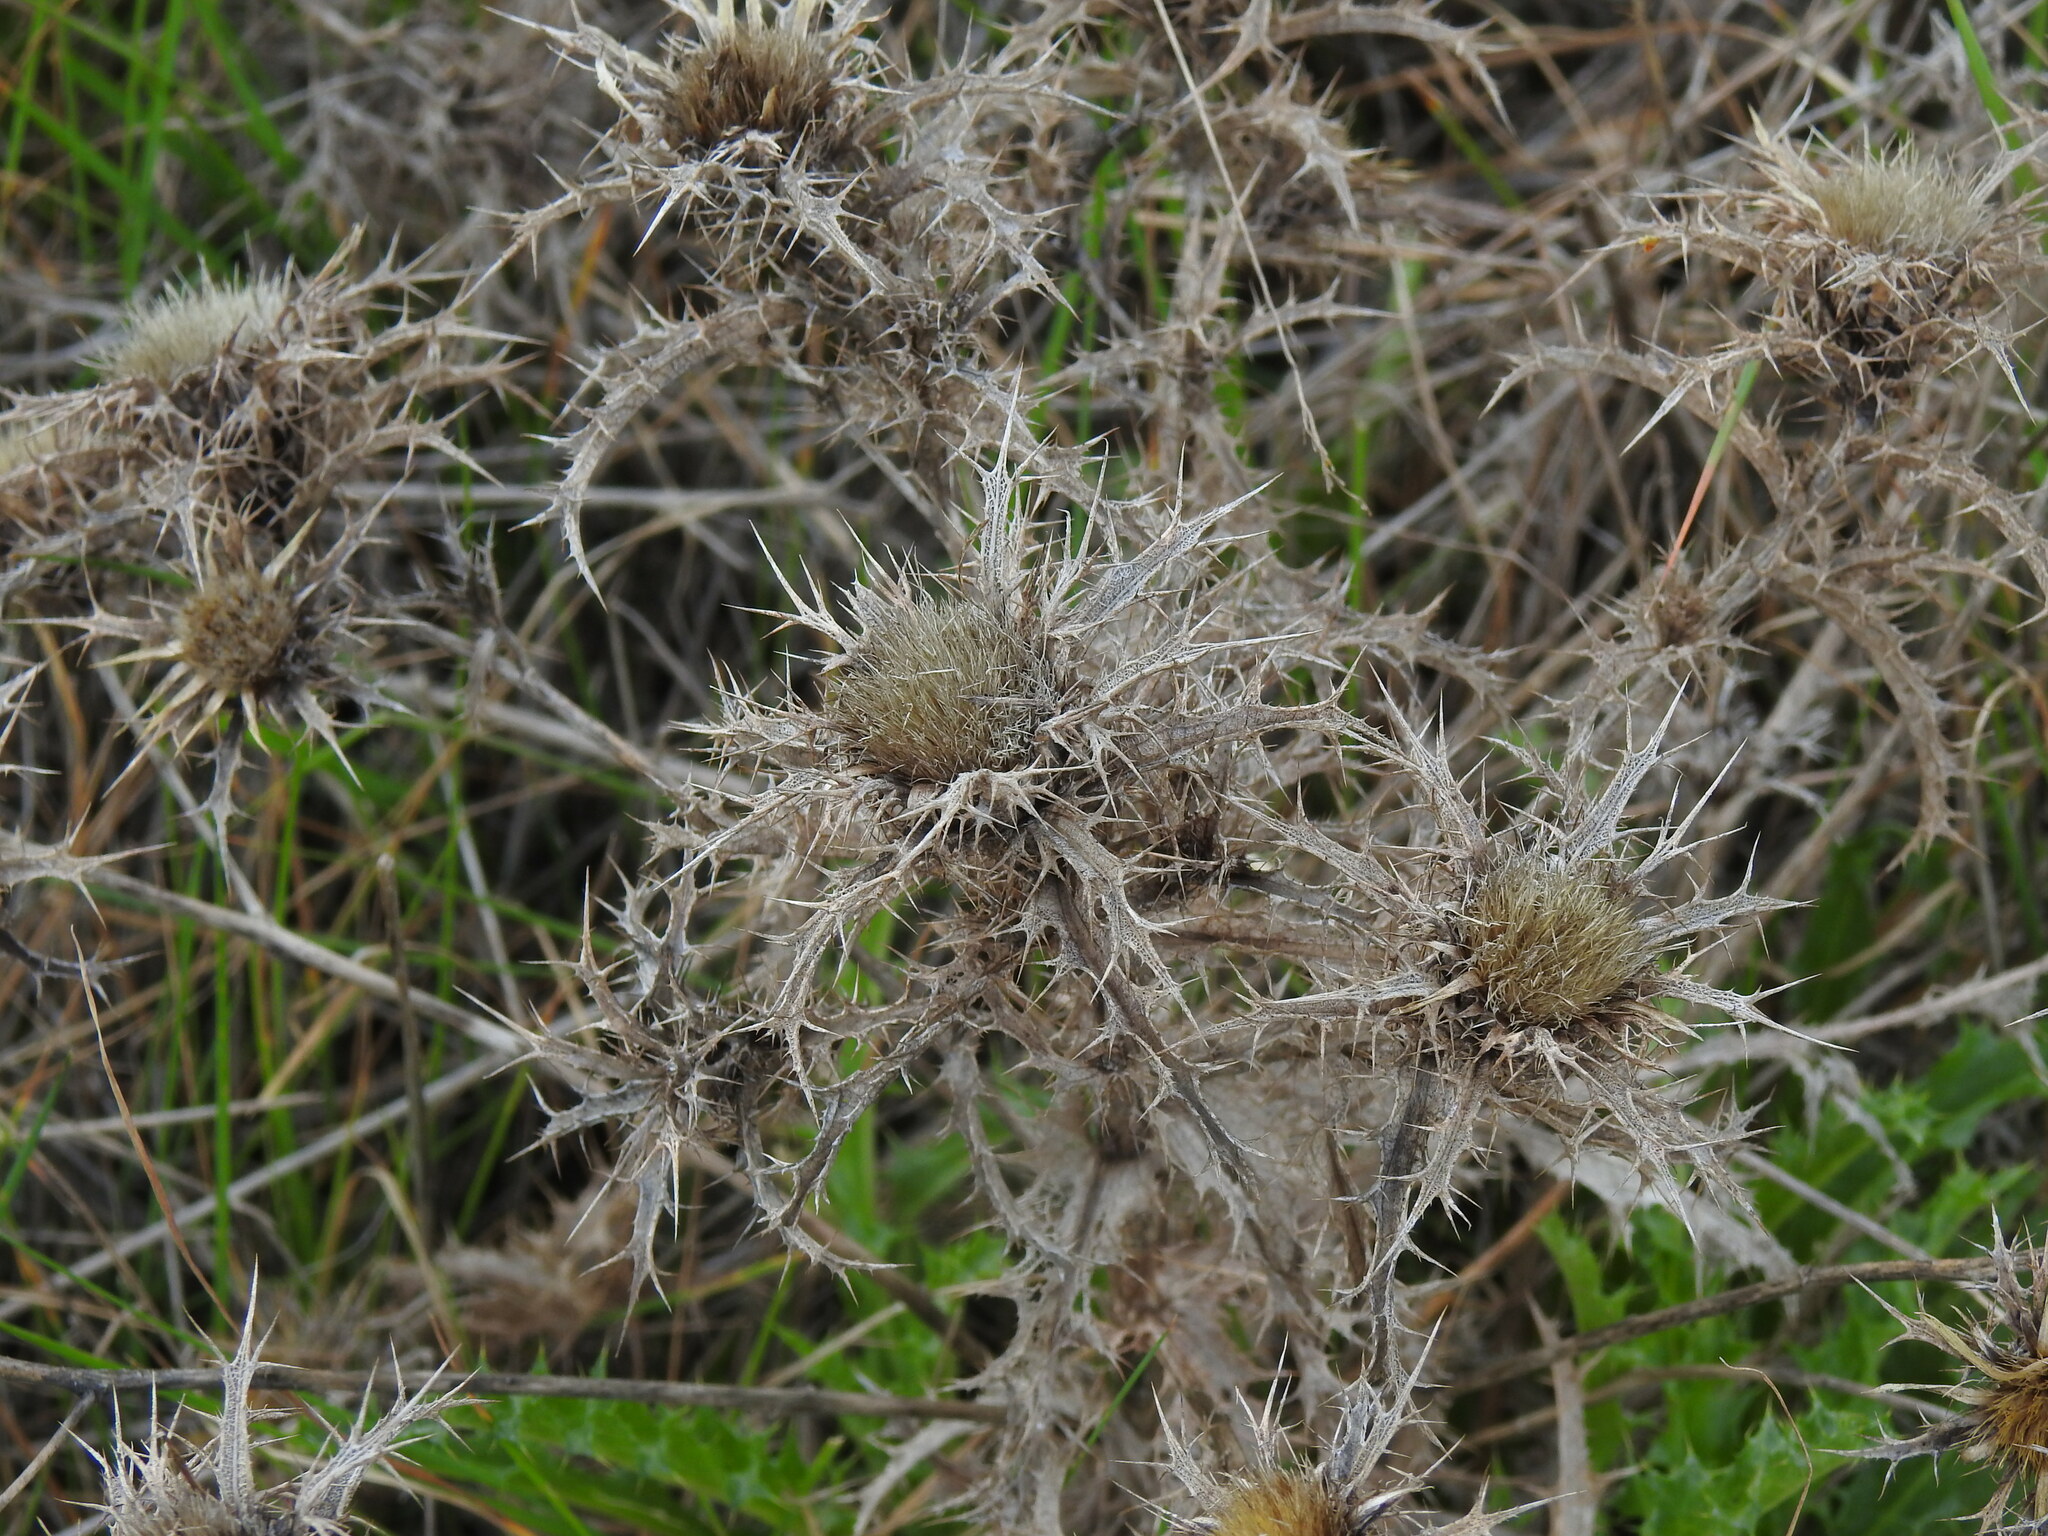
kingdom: Plantae
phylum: Tracheophyta
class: Magnoliopsida
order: Asterales
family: Asteraceae
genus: Carlina
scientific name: Carlina hispanica
